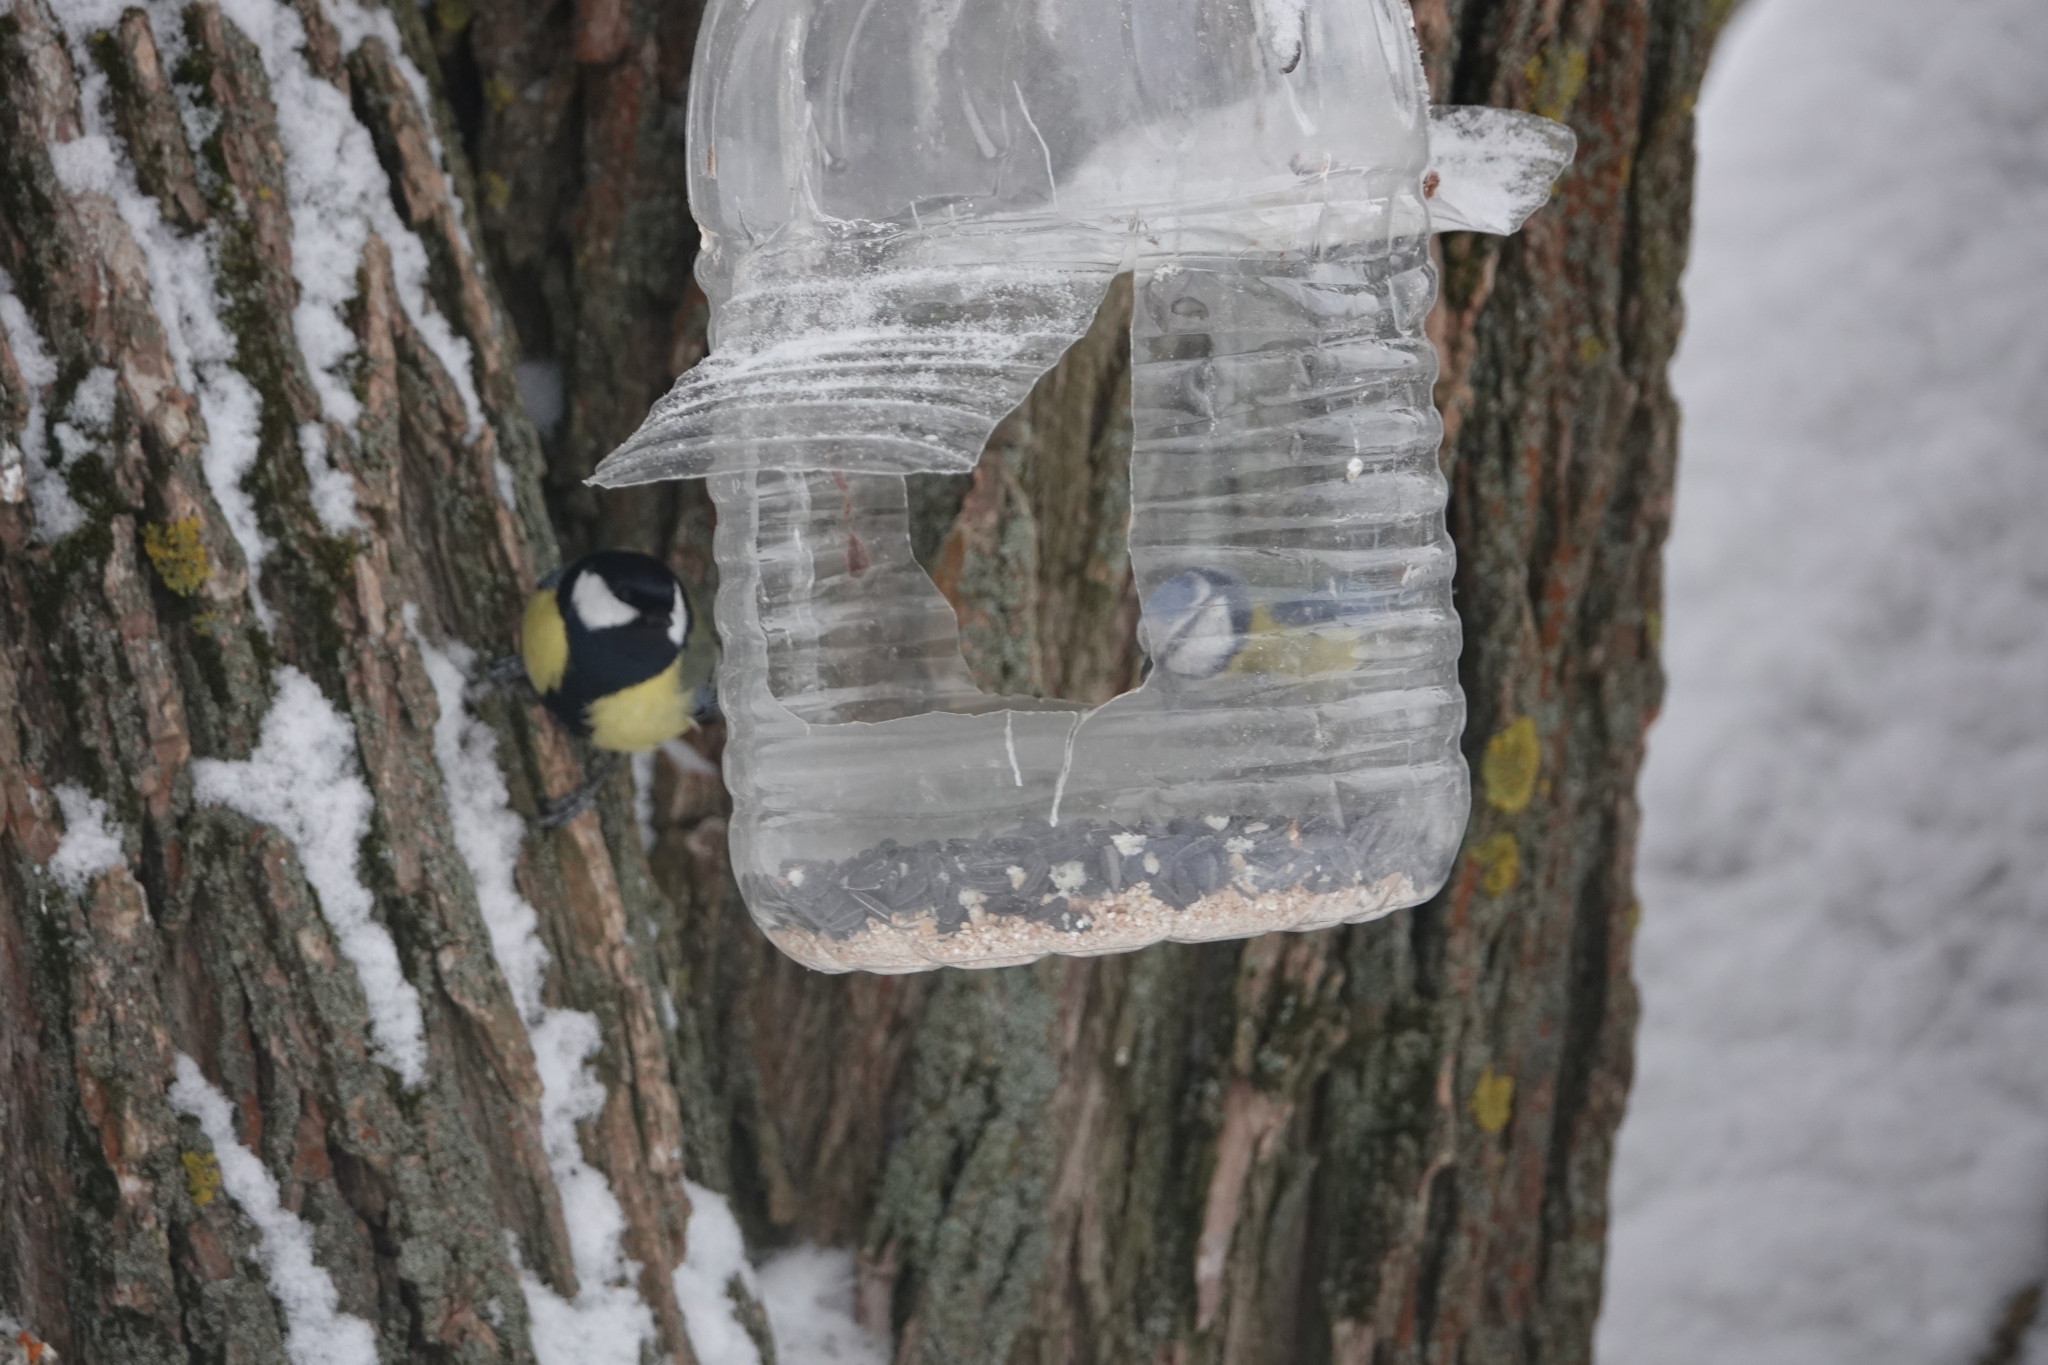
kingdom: Animalia
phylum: Chordata
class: Aves
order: Passeriformes
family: Paridae
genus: Cyanistes
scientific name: Cyanistes caeruleus
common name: Eurasian blue tit
